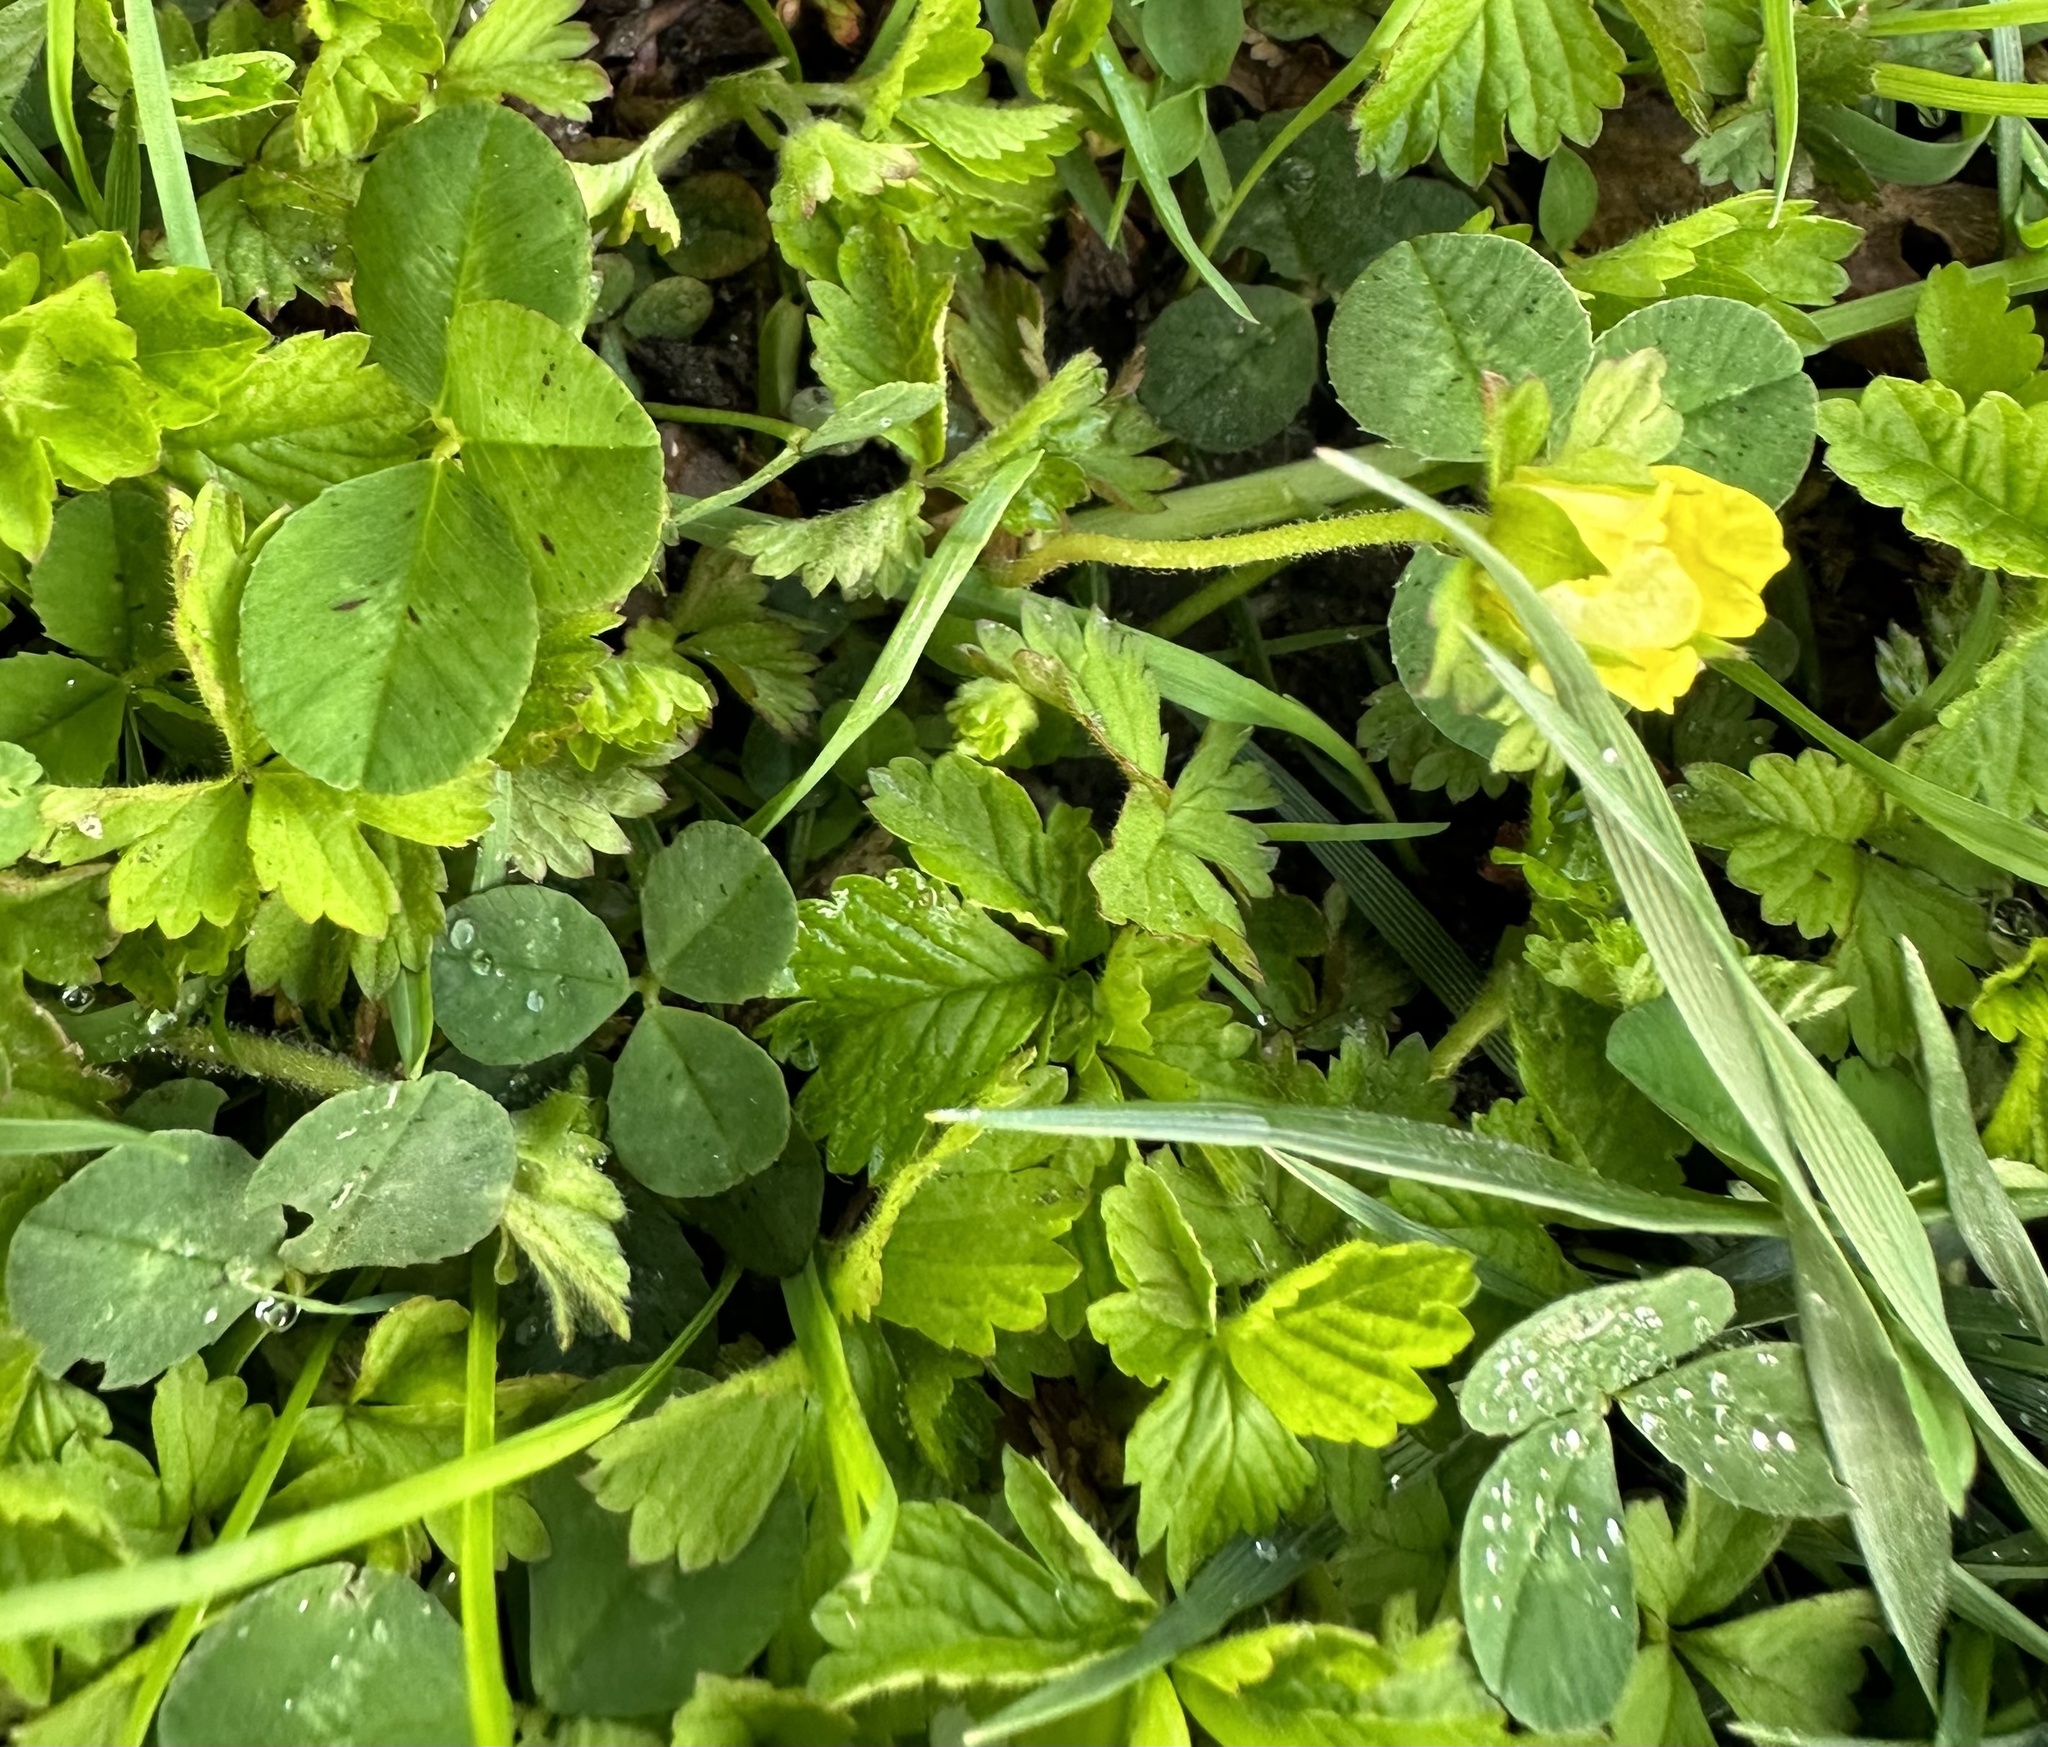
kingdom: Plantae
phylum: Tracheophyta
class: Magnoliopsida
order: Rosales
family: Rosaceae
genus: Potentilla
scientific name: Potentilla indica
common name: Yellow-flowered strawberry
